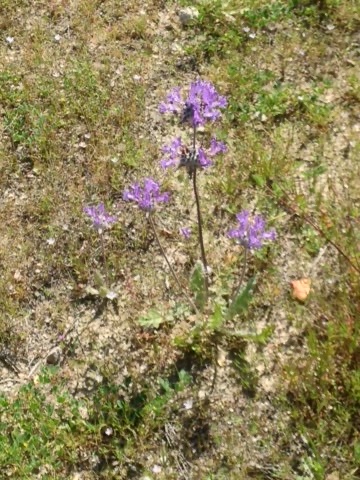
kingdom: Plantae
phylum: Tracheophyta
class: Magnoliopsida
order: Lamiales
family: Lamiaceae
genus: Salvia
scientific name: Salvia carduacea
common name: Thistle sage
